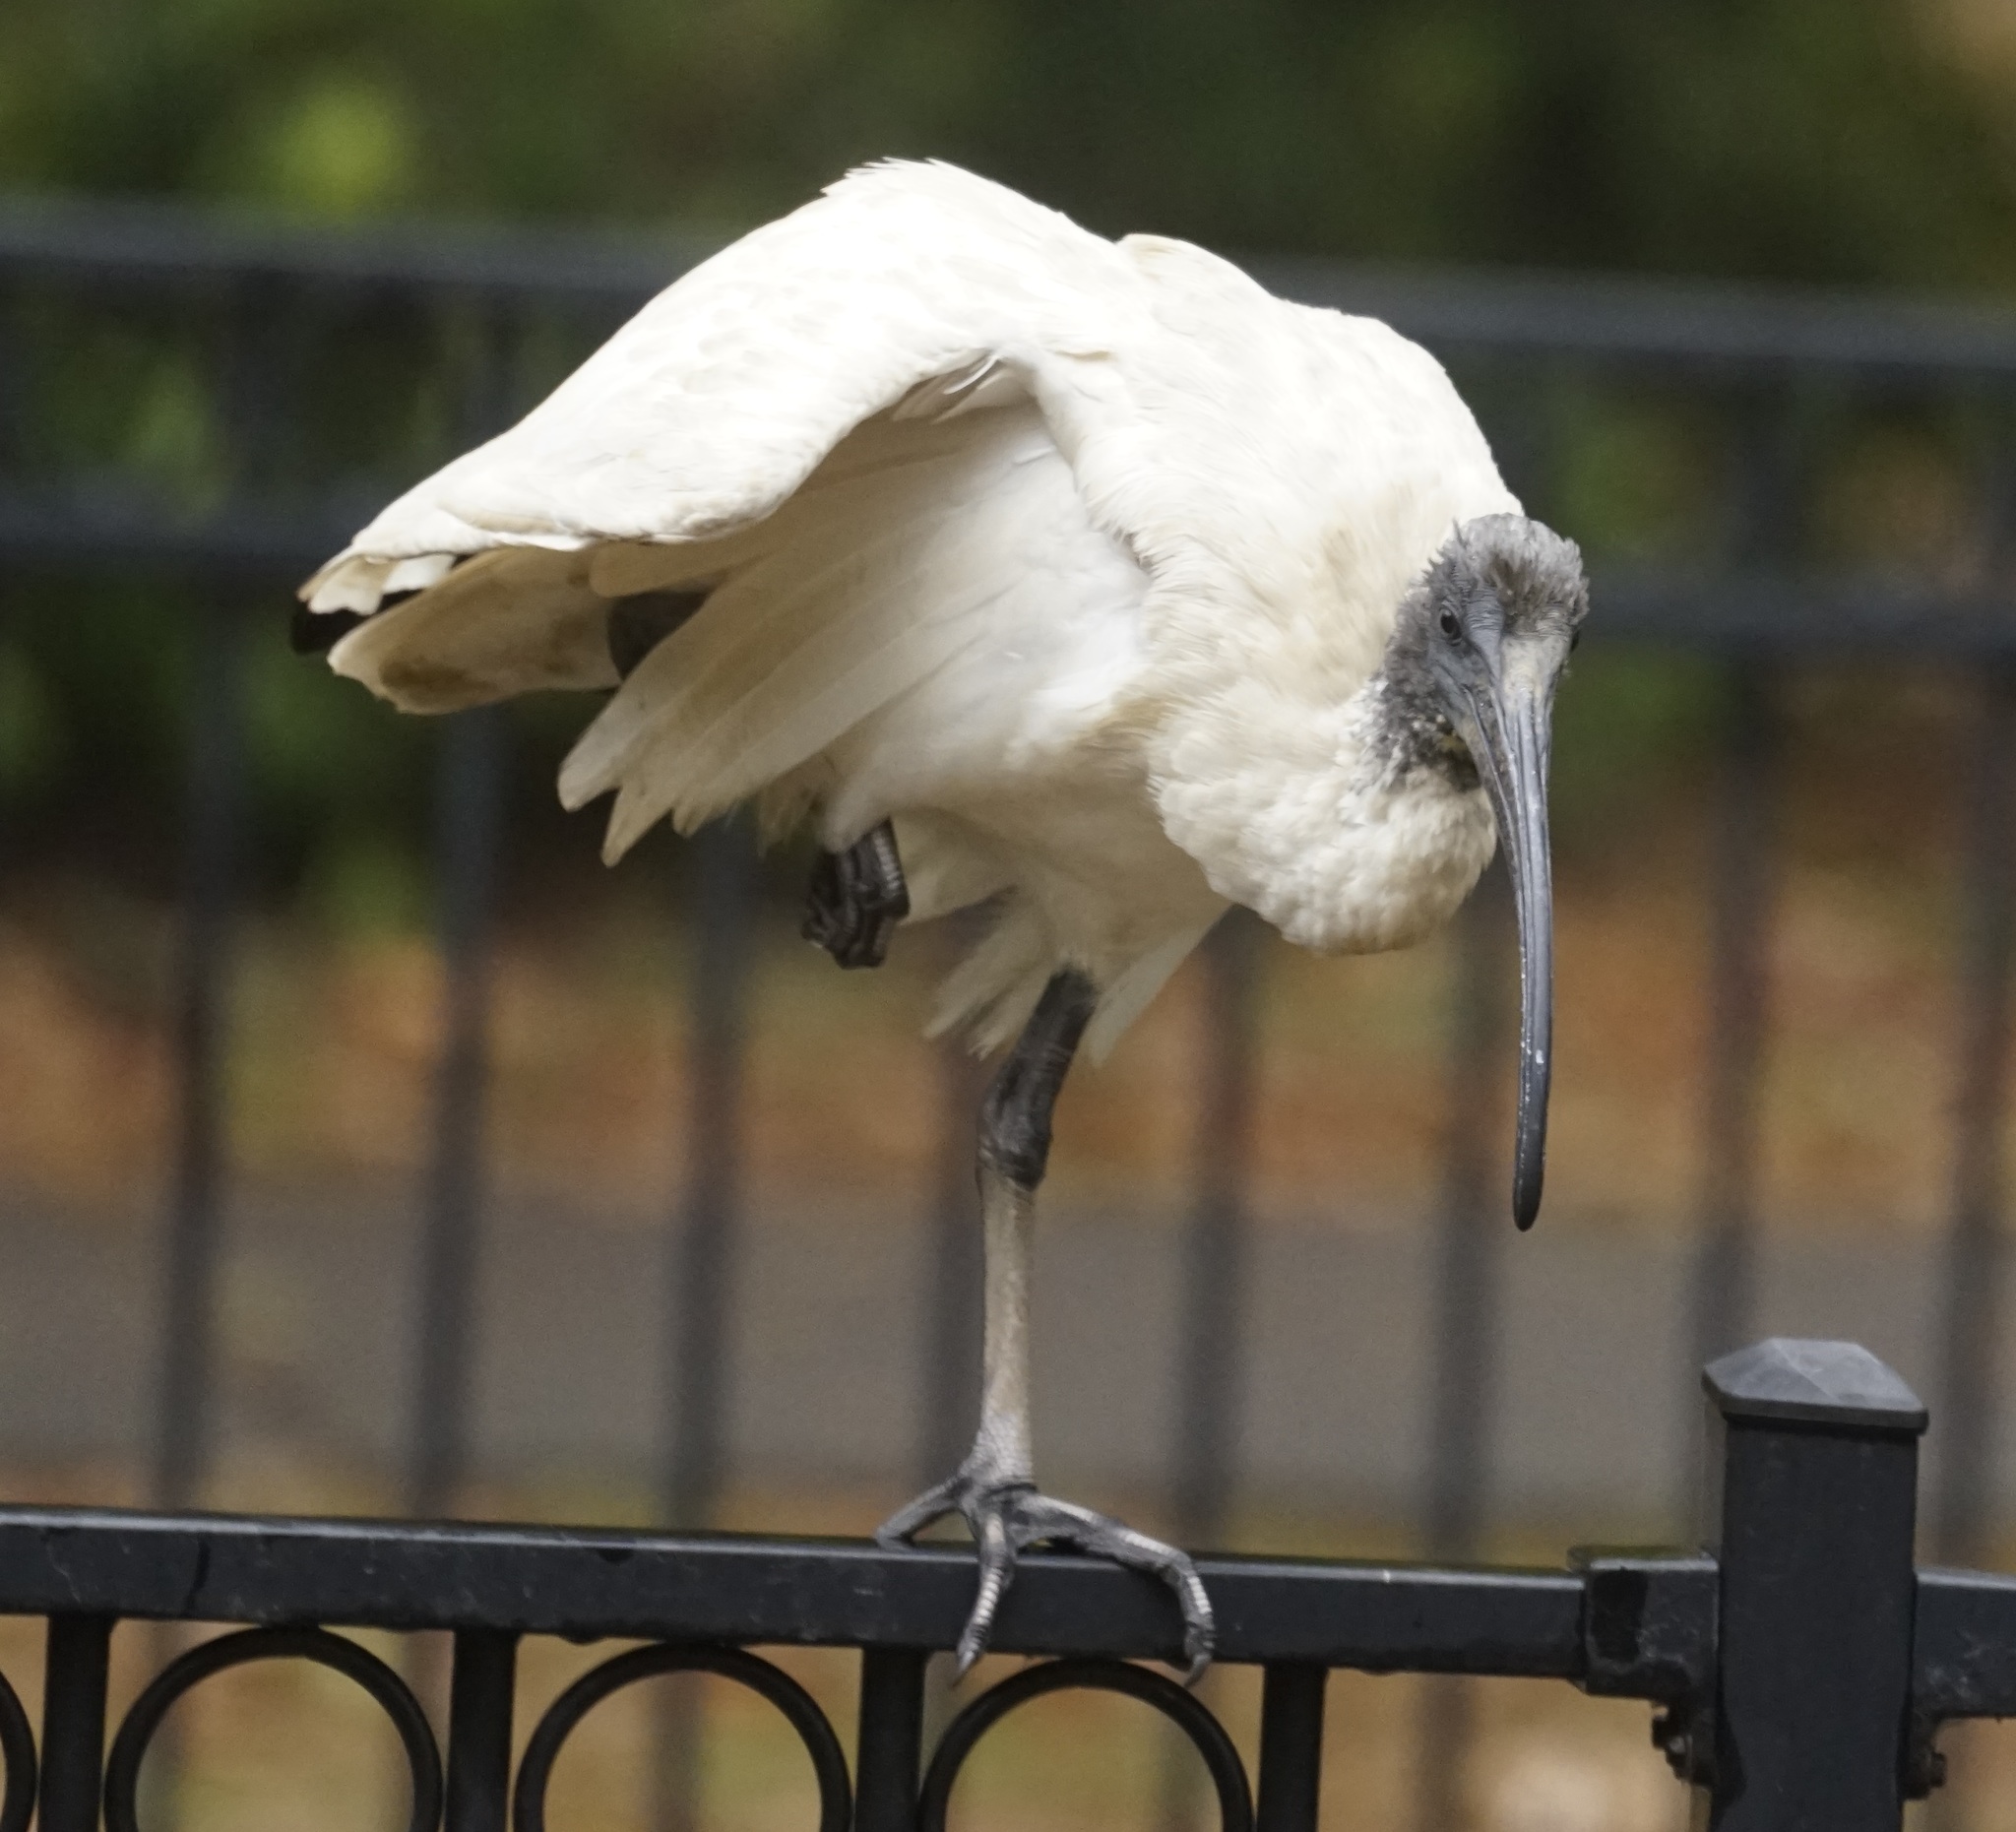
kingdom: Animalia
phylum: Chordata
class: Aves
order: Pelecaniformes
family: Threskiornithidae
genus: Threskiornis
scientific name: Threskiornis molucca
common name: Australian white ibis
